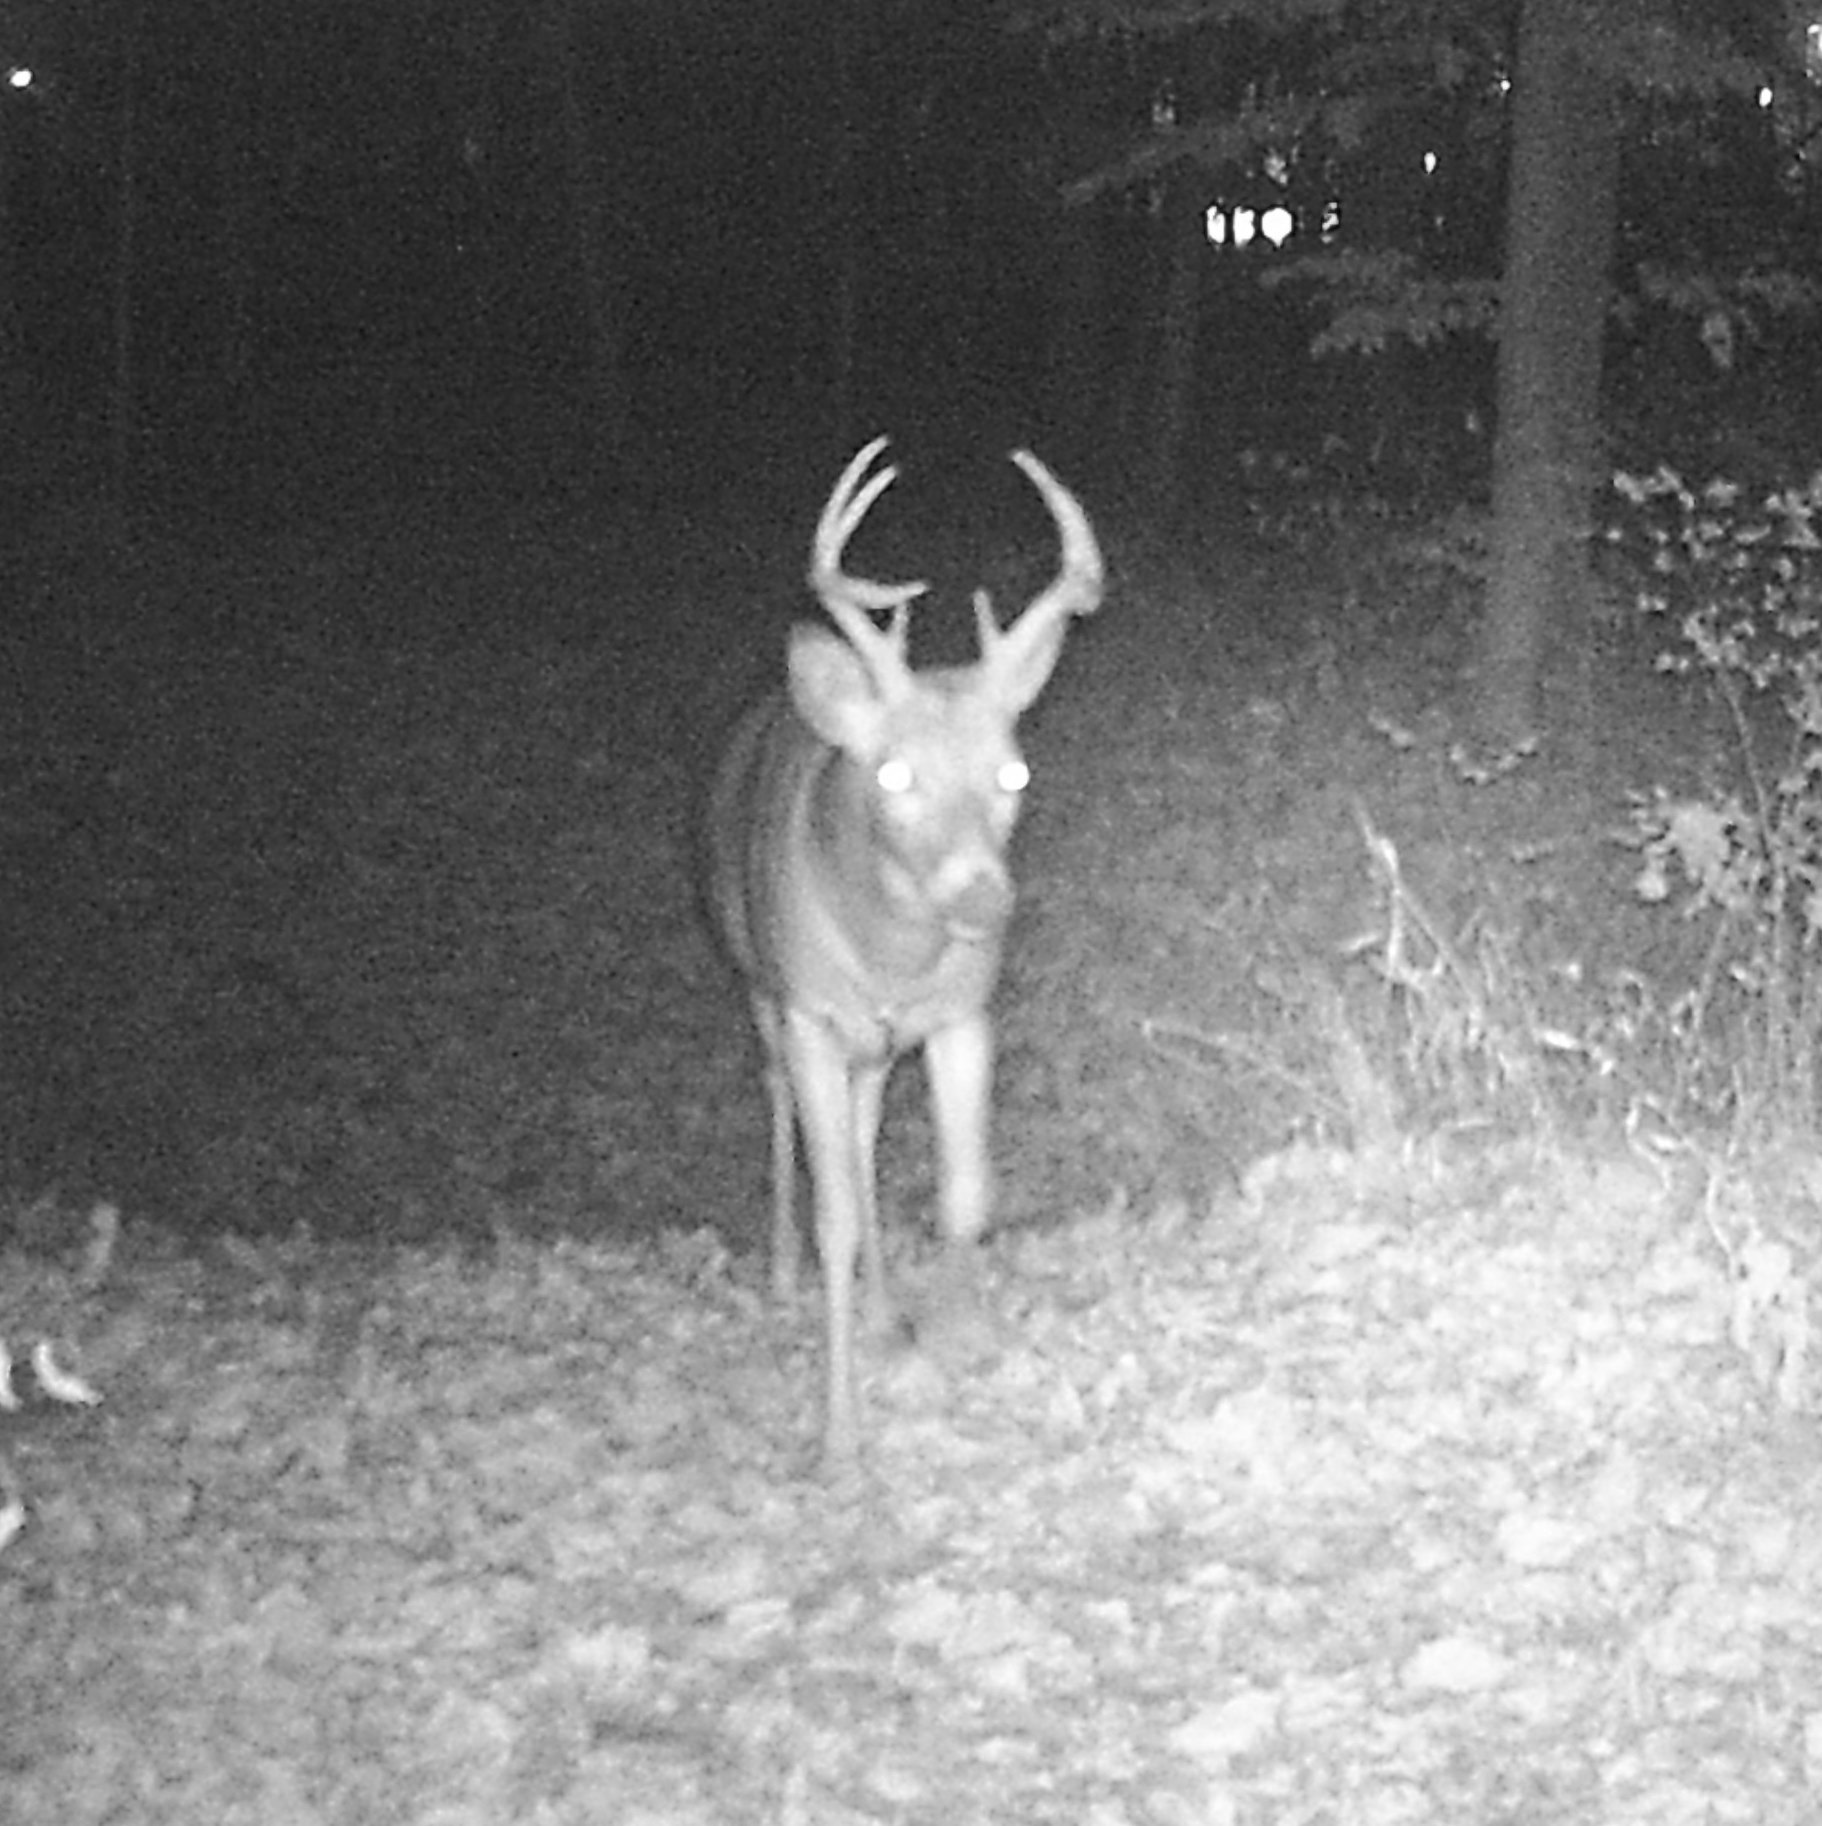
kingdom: Animalia
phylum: Chordata
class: Mammalia
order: Artiodactyla
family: Cervidae
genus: Odocoileus
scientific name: Odocoileus virginianus
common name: White-tailed deer
